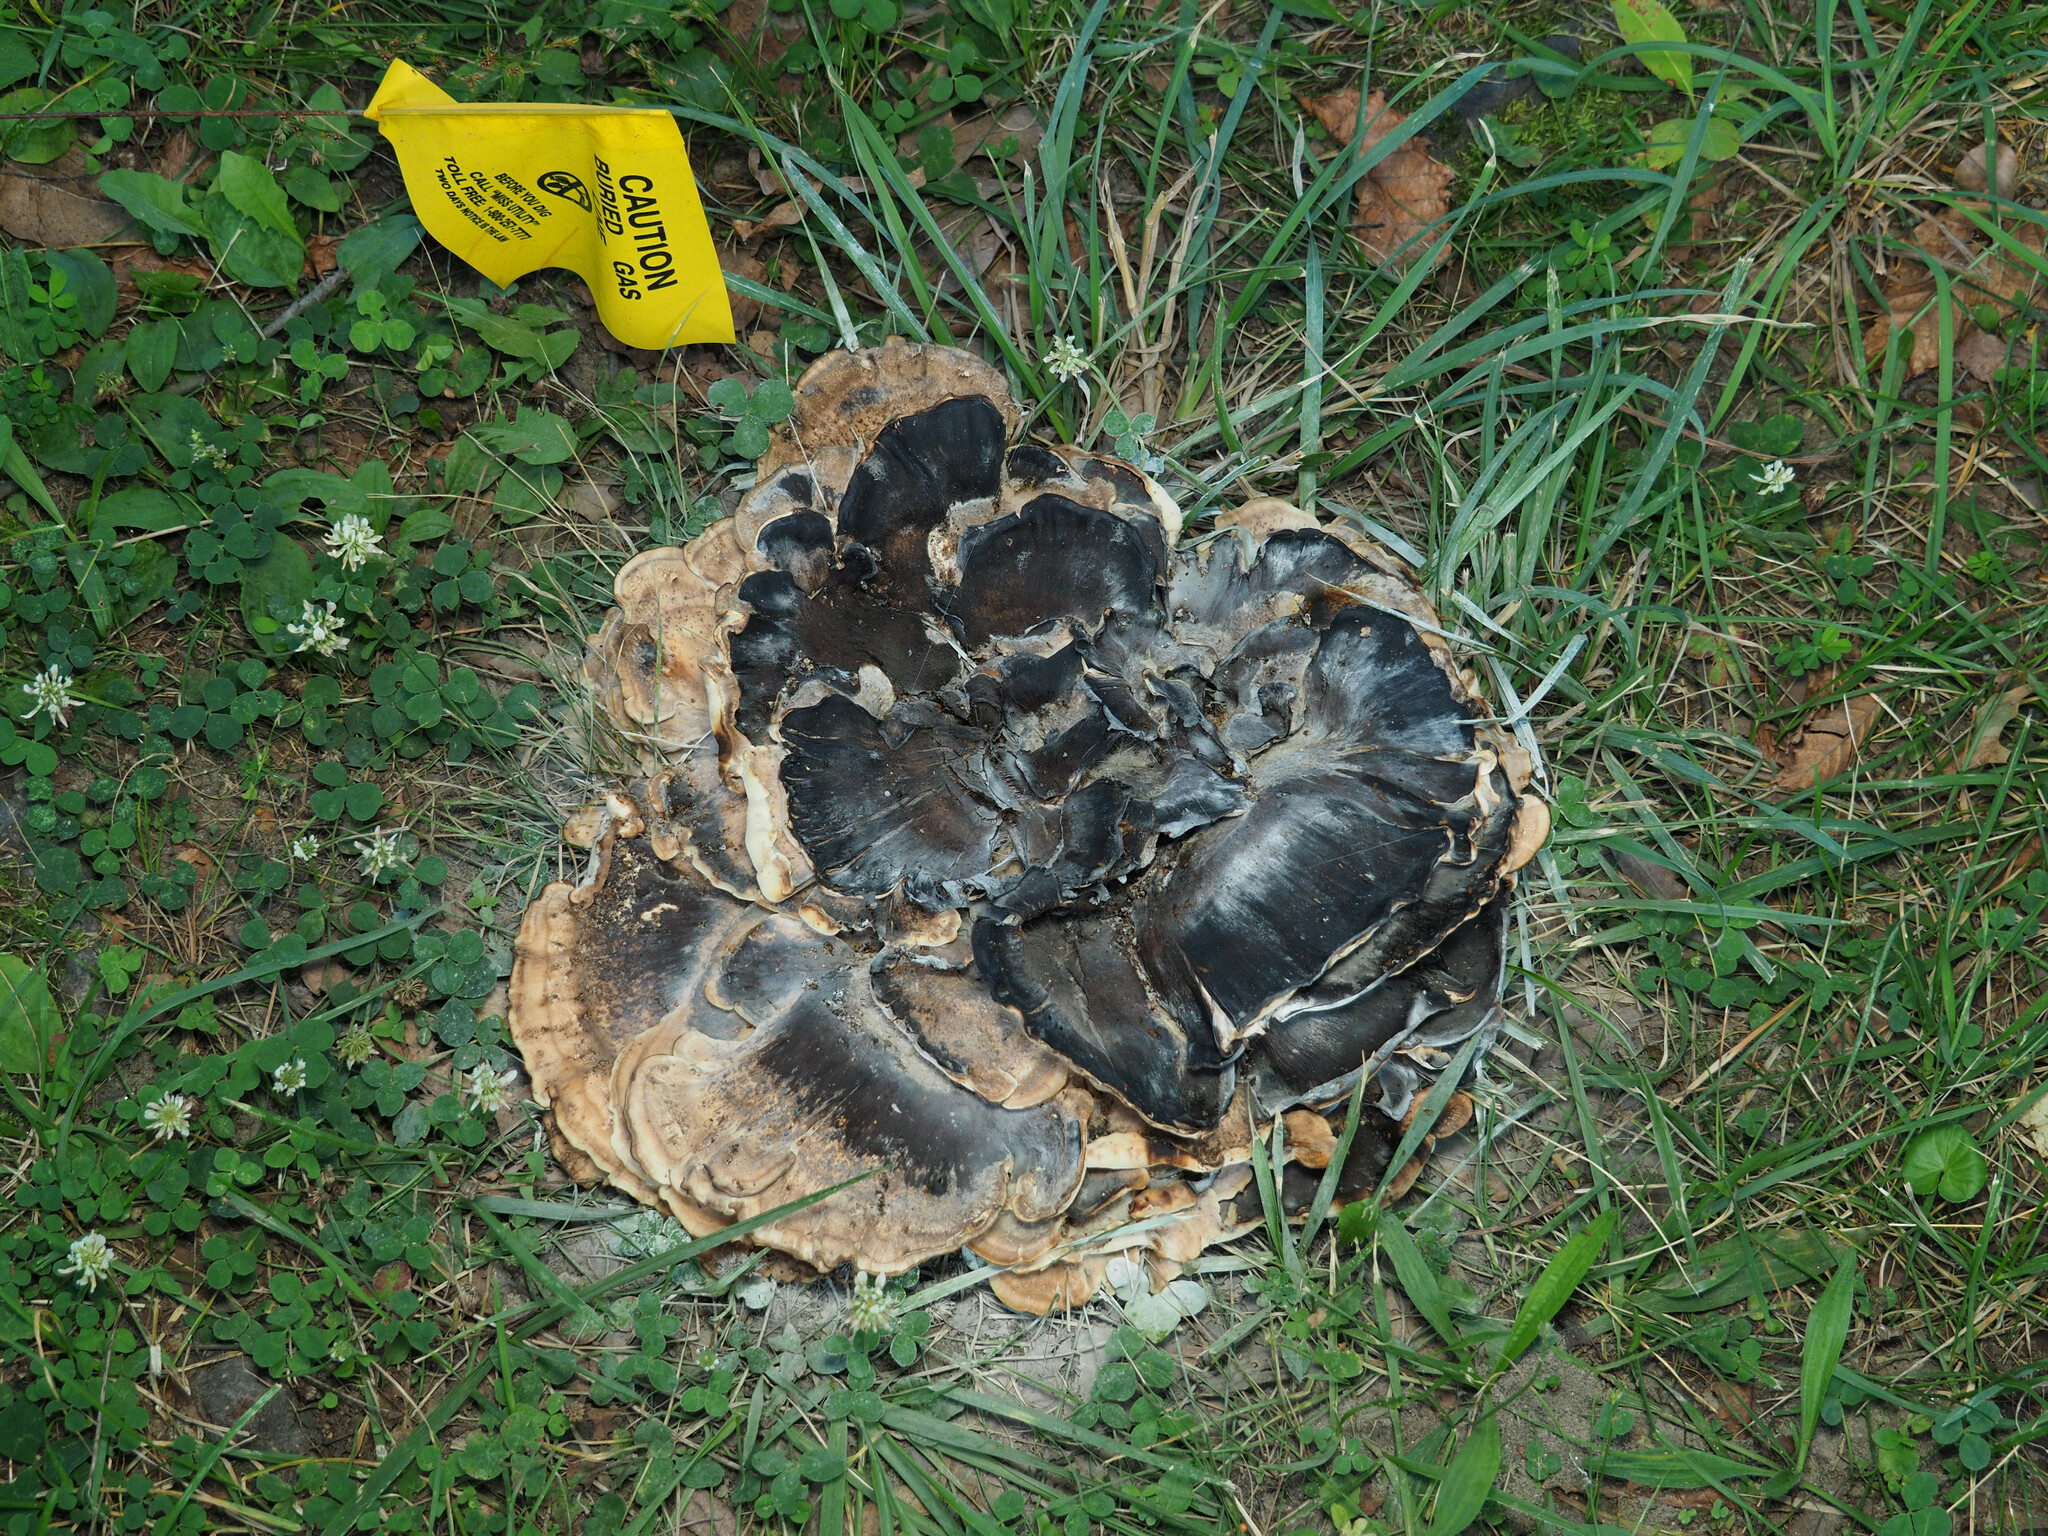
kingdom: Fungi
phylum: Basidiomycota
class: Agaricomycetes
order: Polyporales
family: Meripilaceae
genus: Meripilus
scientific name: Meripilus sumstinei
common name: Black-staining polypore
